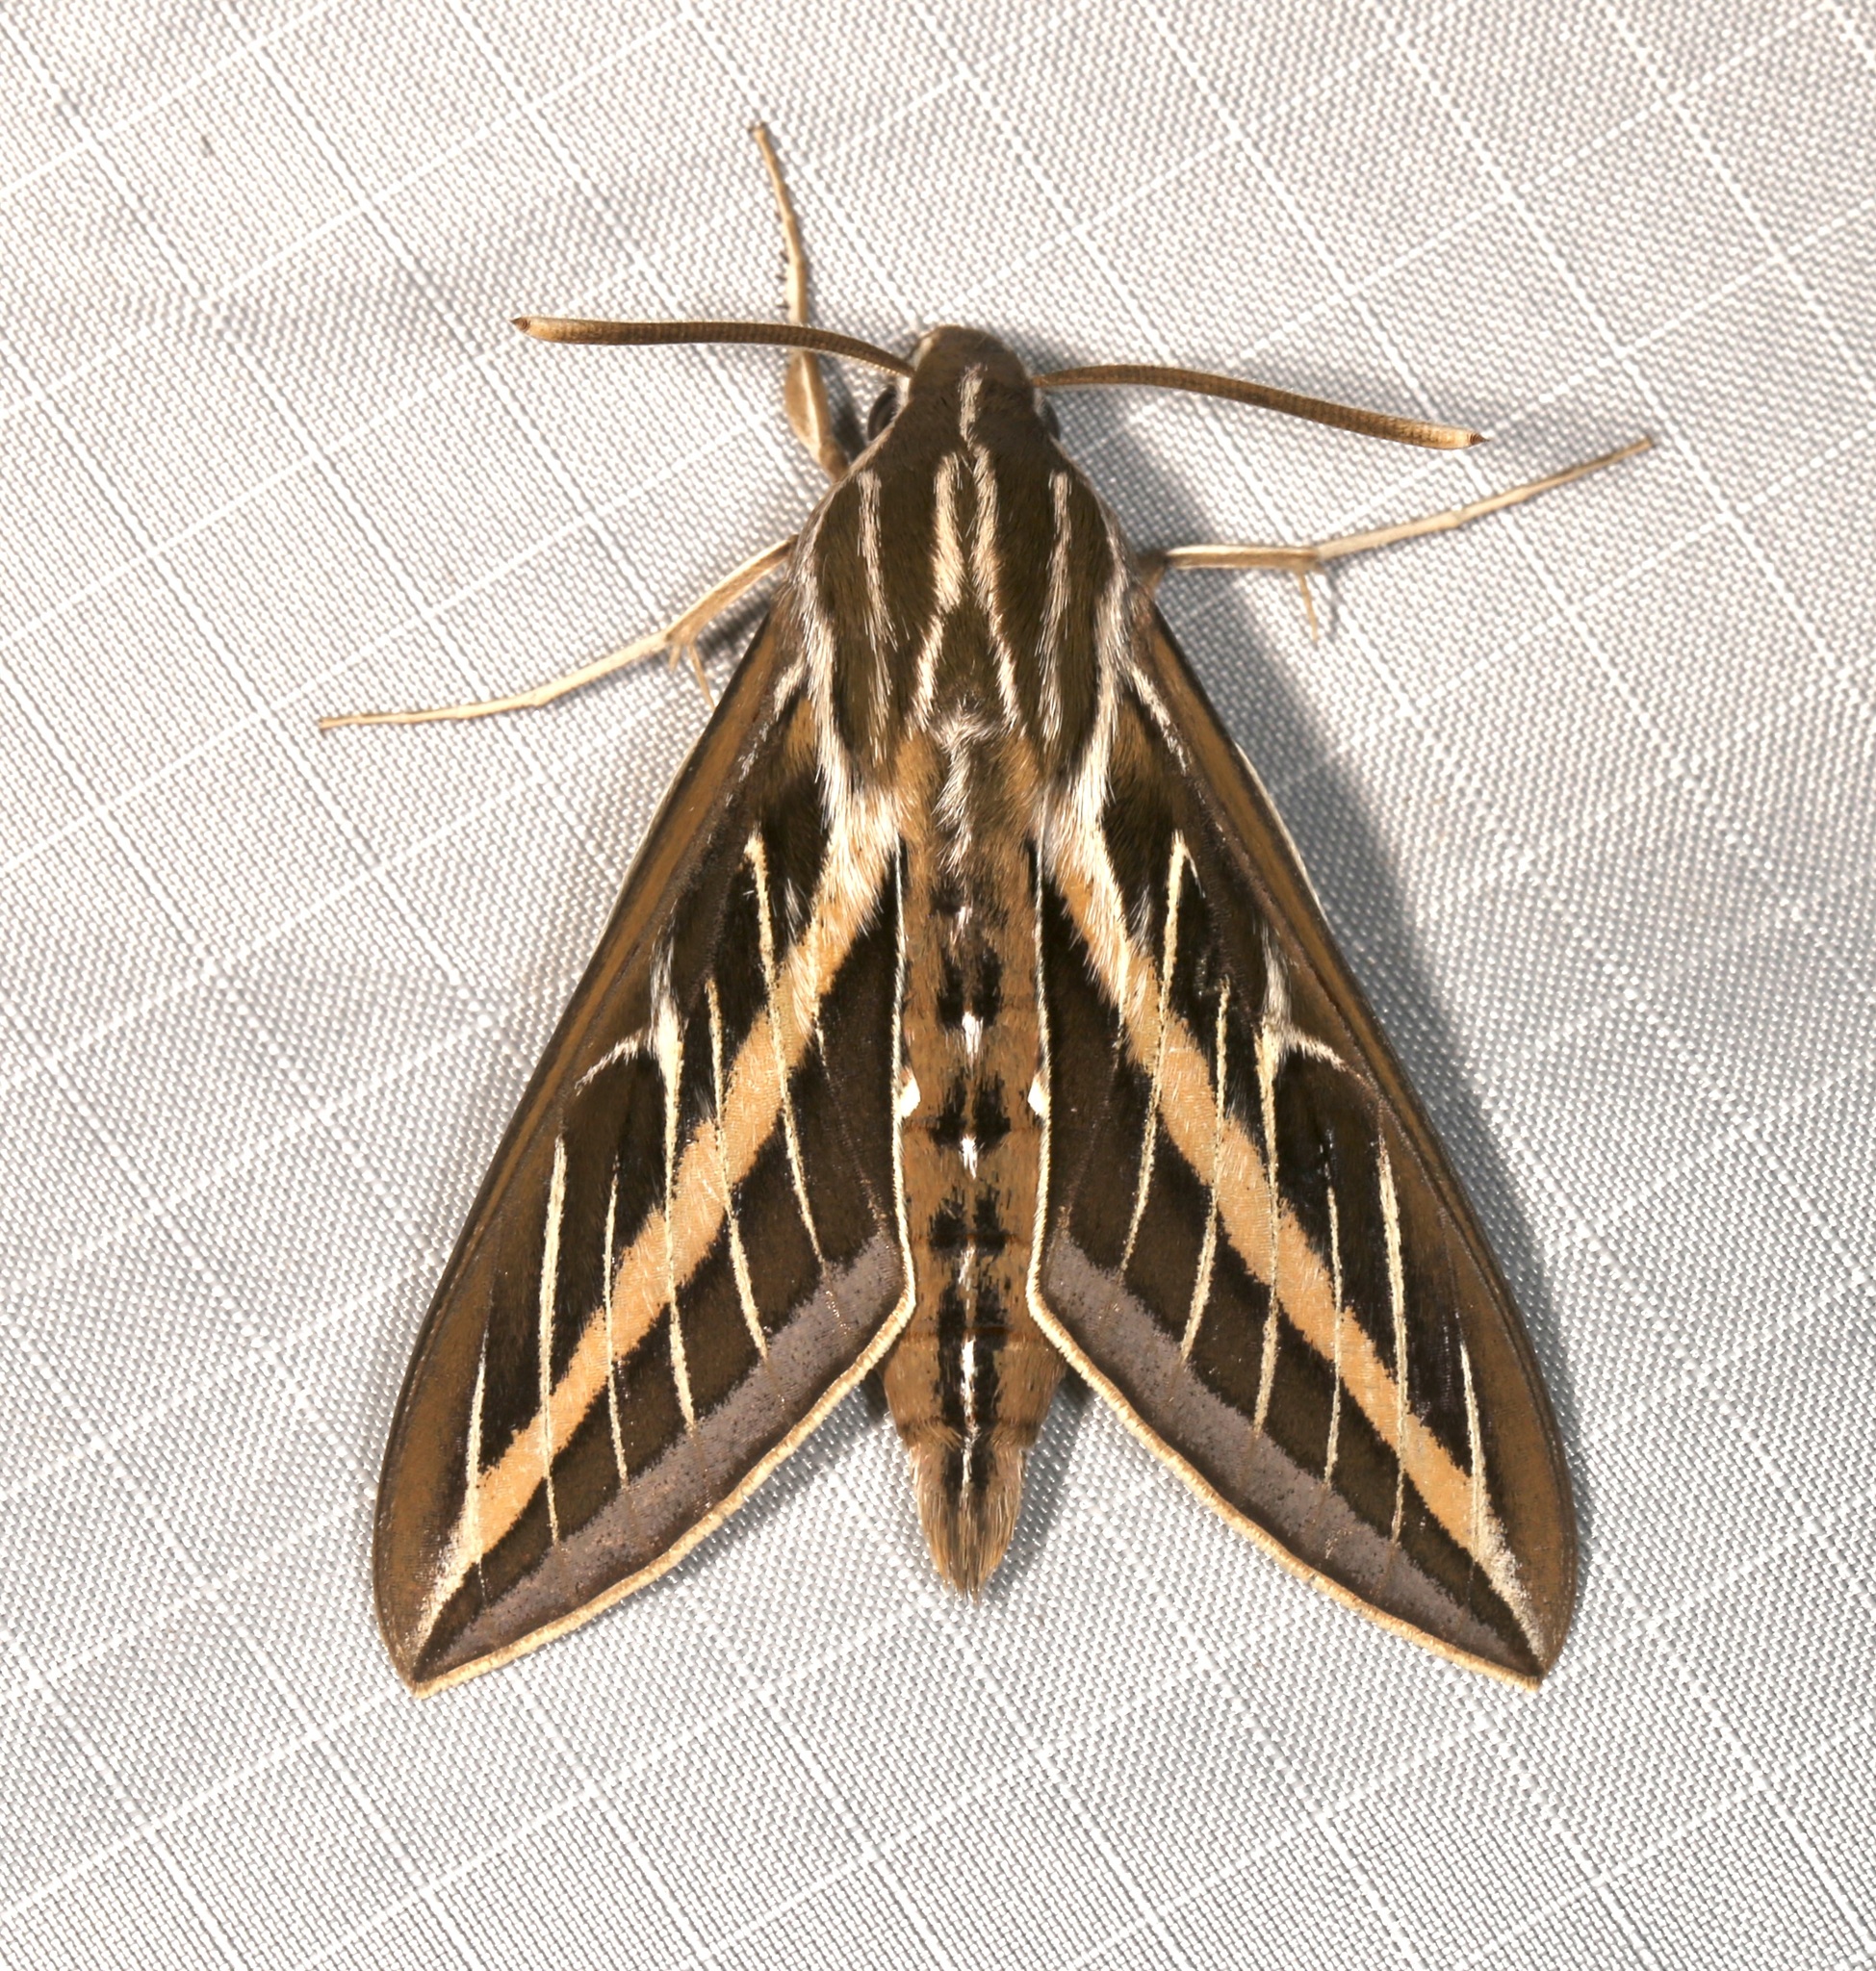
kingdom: Animalia
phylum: Arthropoda
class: Insecta
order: Lepidoptera
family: Sphingidae
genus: Hyles
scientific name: Hyles lineata
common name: White-lined sphinx
